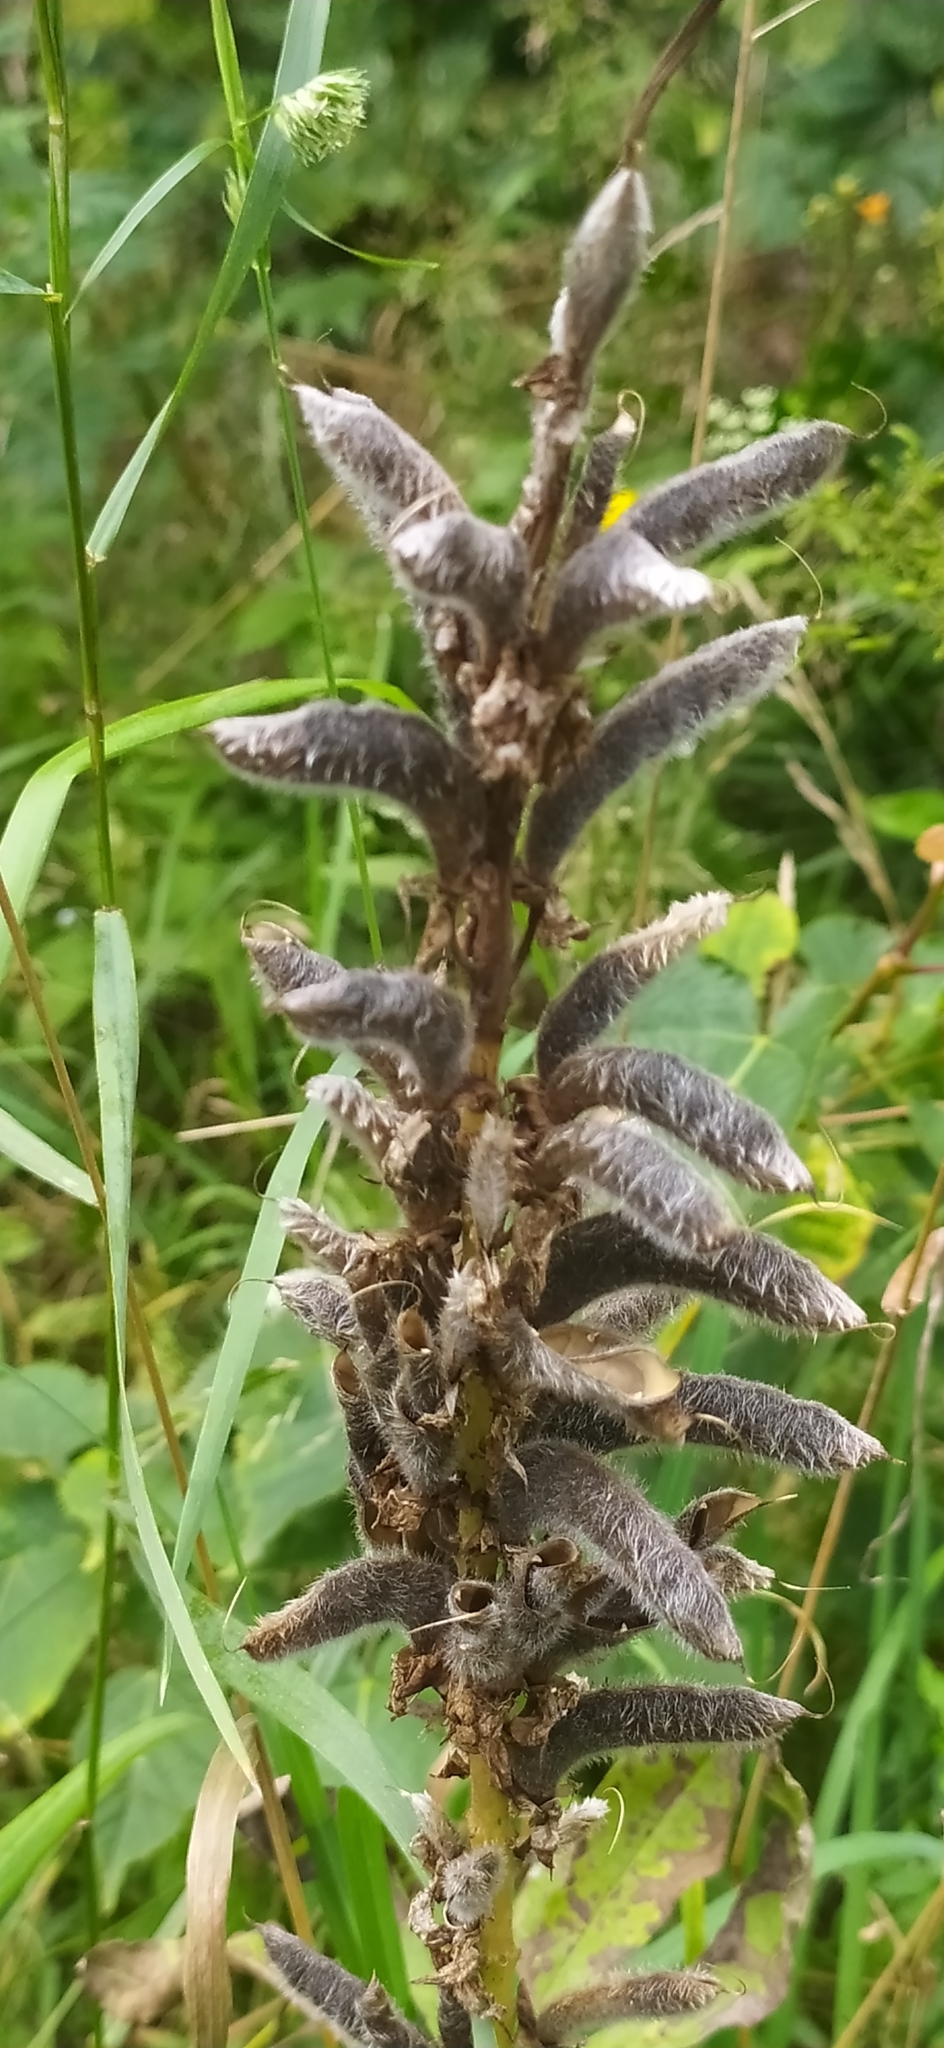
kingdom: Plantae
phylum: Tracheophyta
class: Magnoliopsida
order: Fabales
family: Fabaceae
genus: Lupinus
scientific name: Lupinus polyphyllus
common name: Garden lupin
